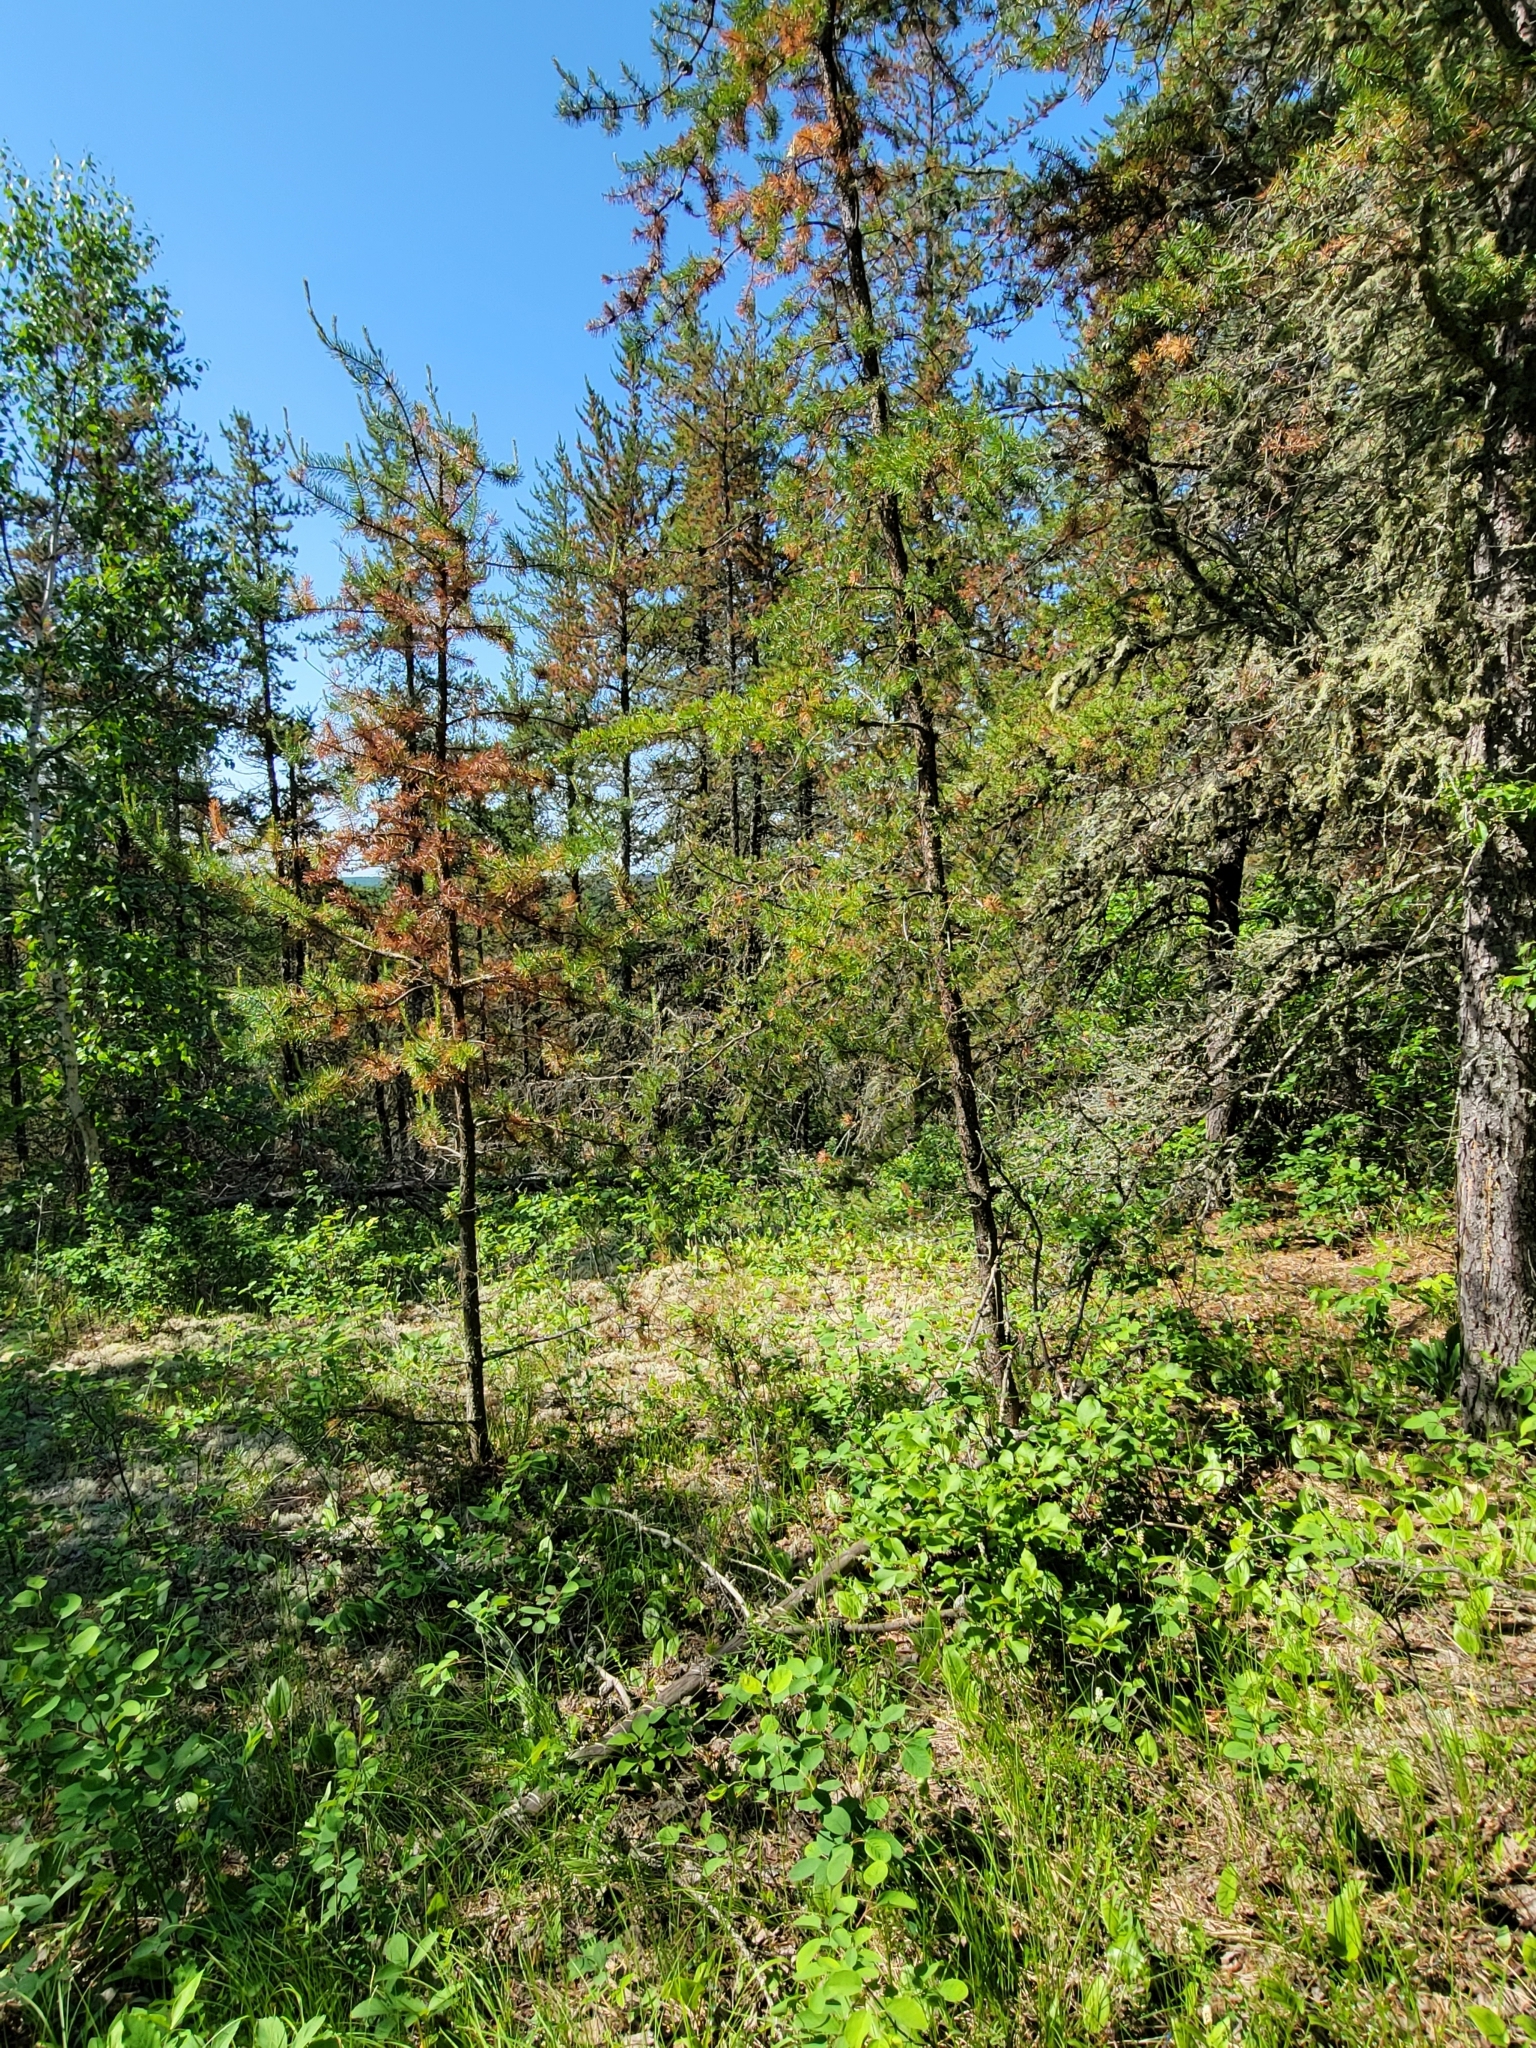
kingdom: Plantae
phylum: Tracheophyta
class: Pinopsida
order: Pinales
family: Pinaceae
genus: Pinus
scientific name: Pinus banksiana
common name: Jack pine
